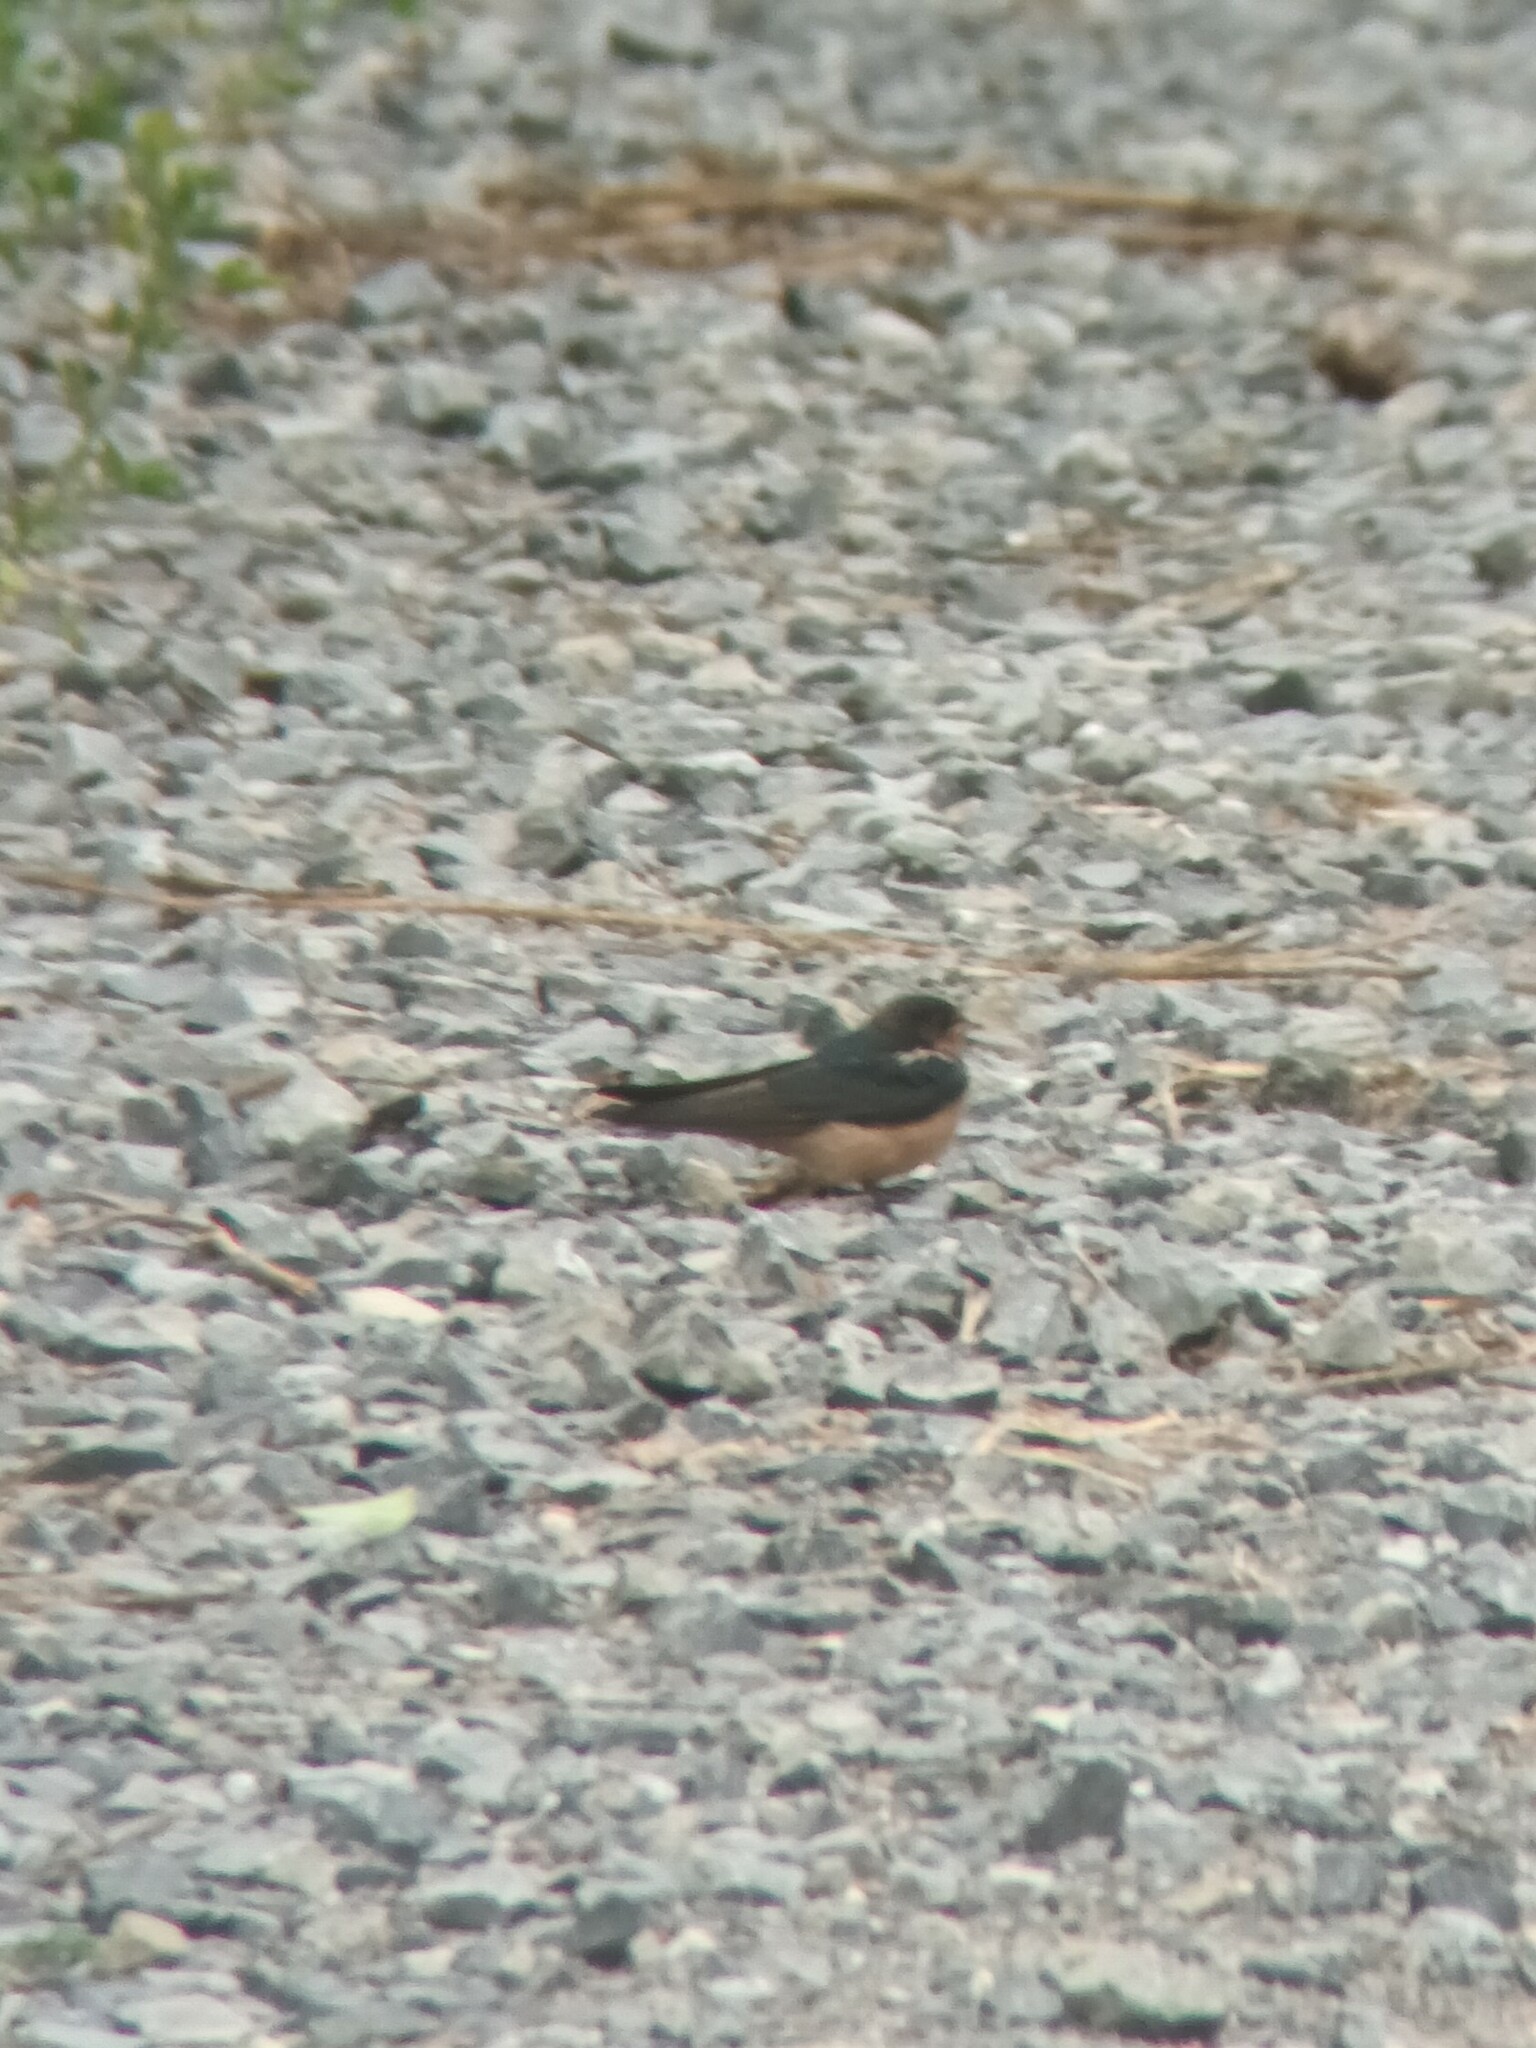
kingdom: Animalia
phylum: Chordata
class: Aves
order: Passeriformes
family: Hirundinidae
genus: Hirundo
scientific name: Hirundo rustica
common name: Barn swallow
